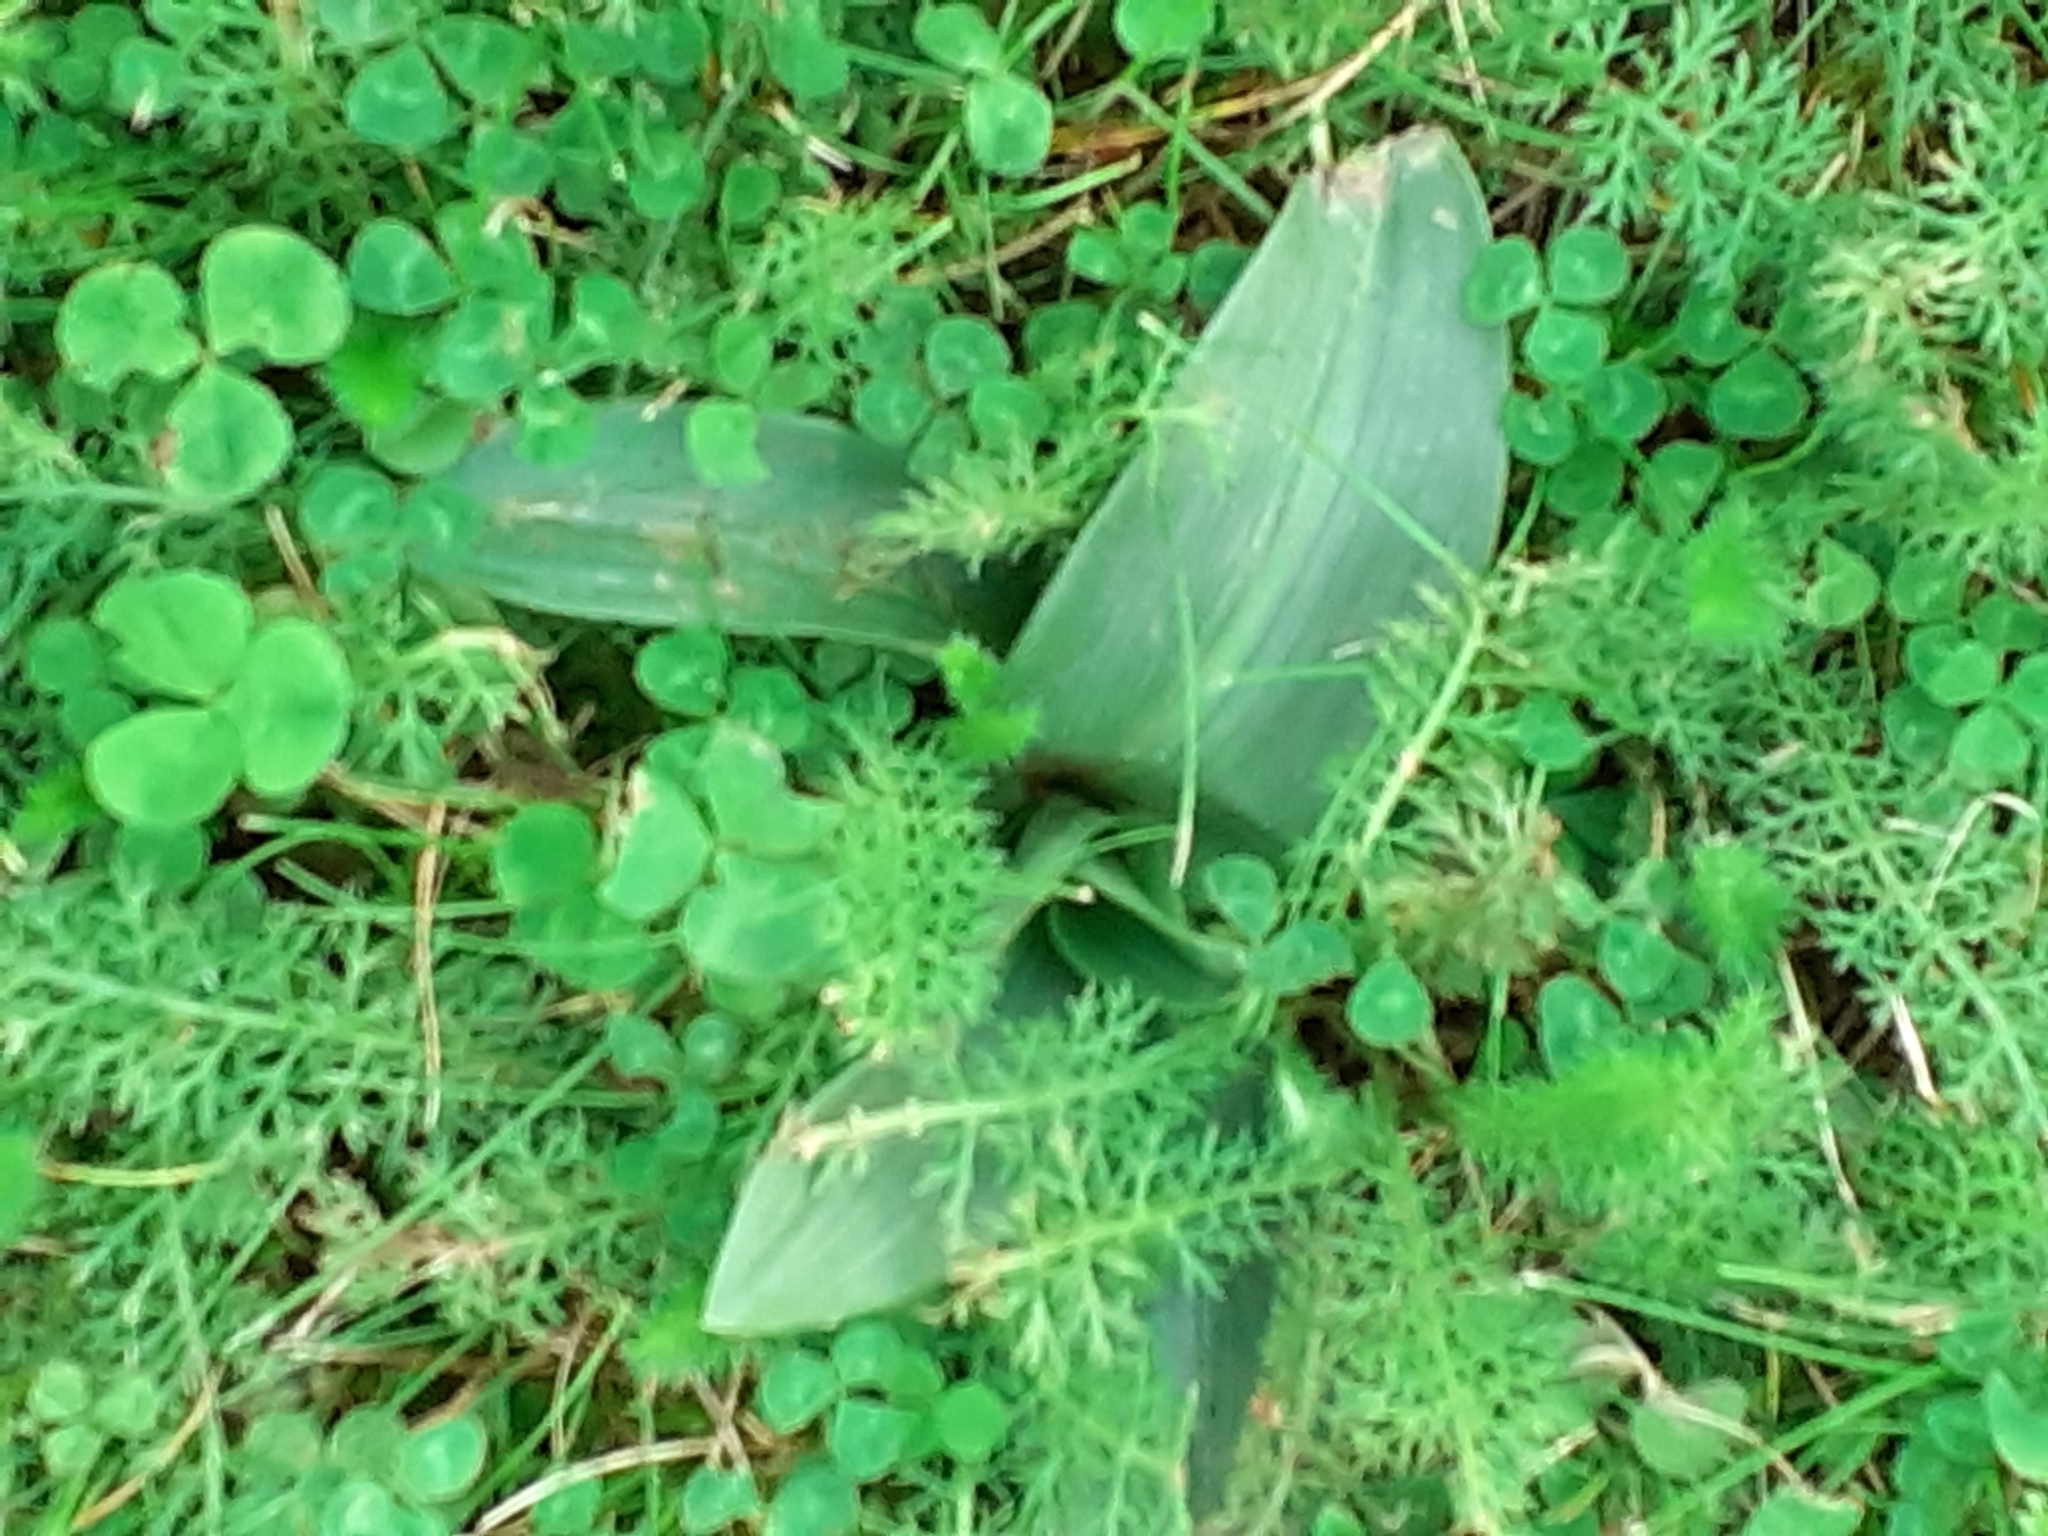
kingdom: Plantae
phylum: Tracheophyta
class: Liliopsida
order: Asparagales
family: Orchidaceae
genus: Ophrys
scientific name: Ophrys apifera
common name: Bee orchid
